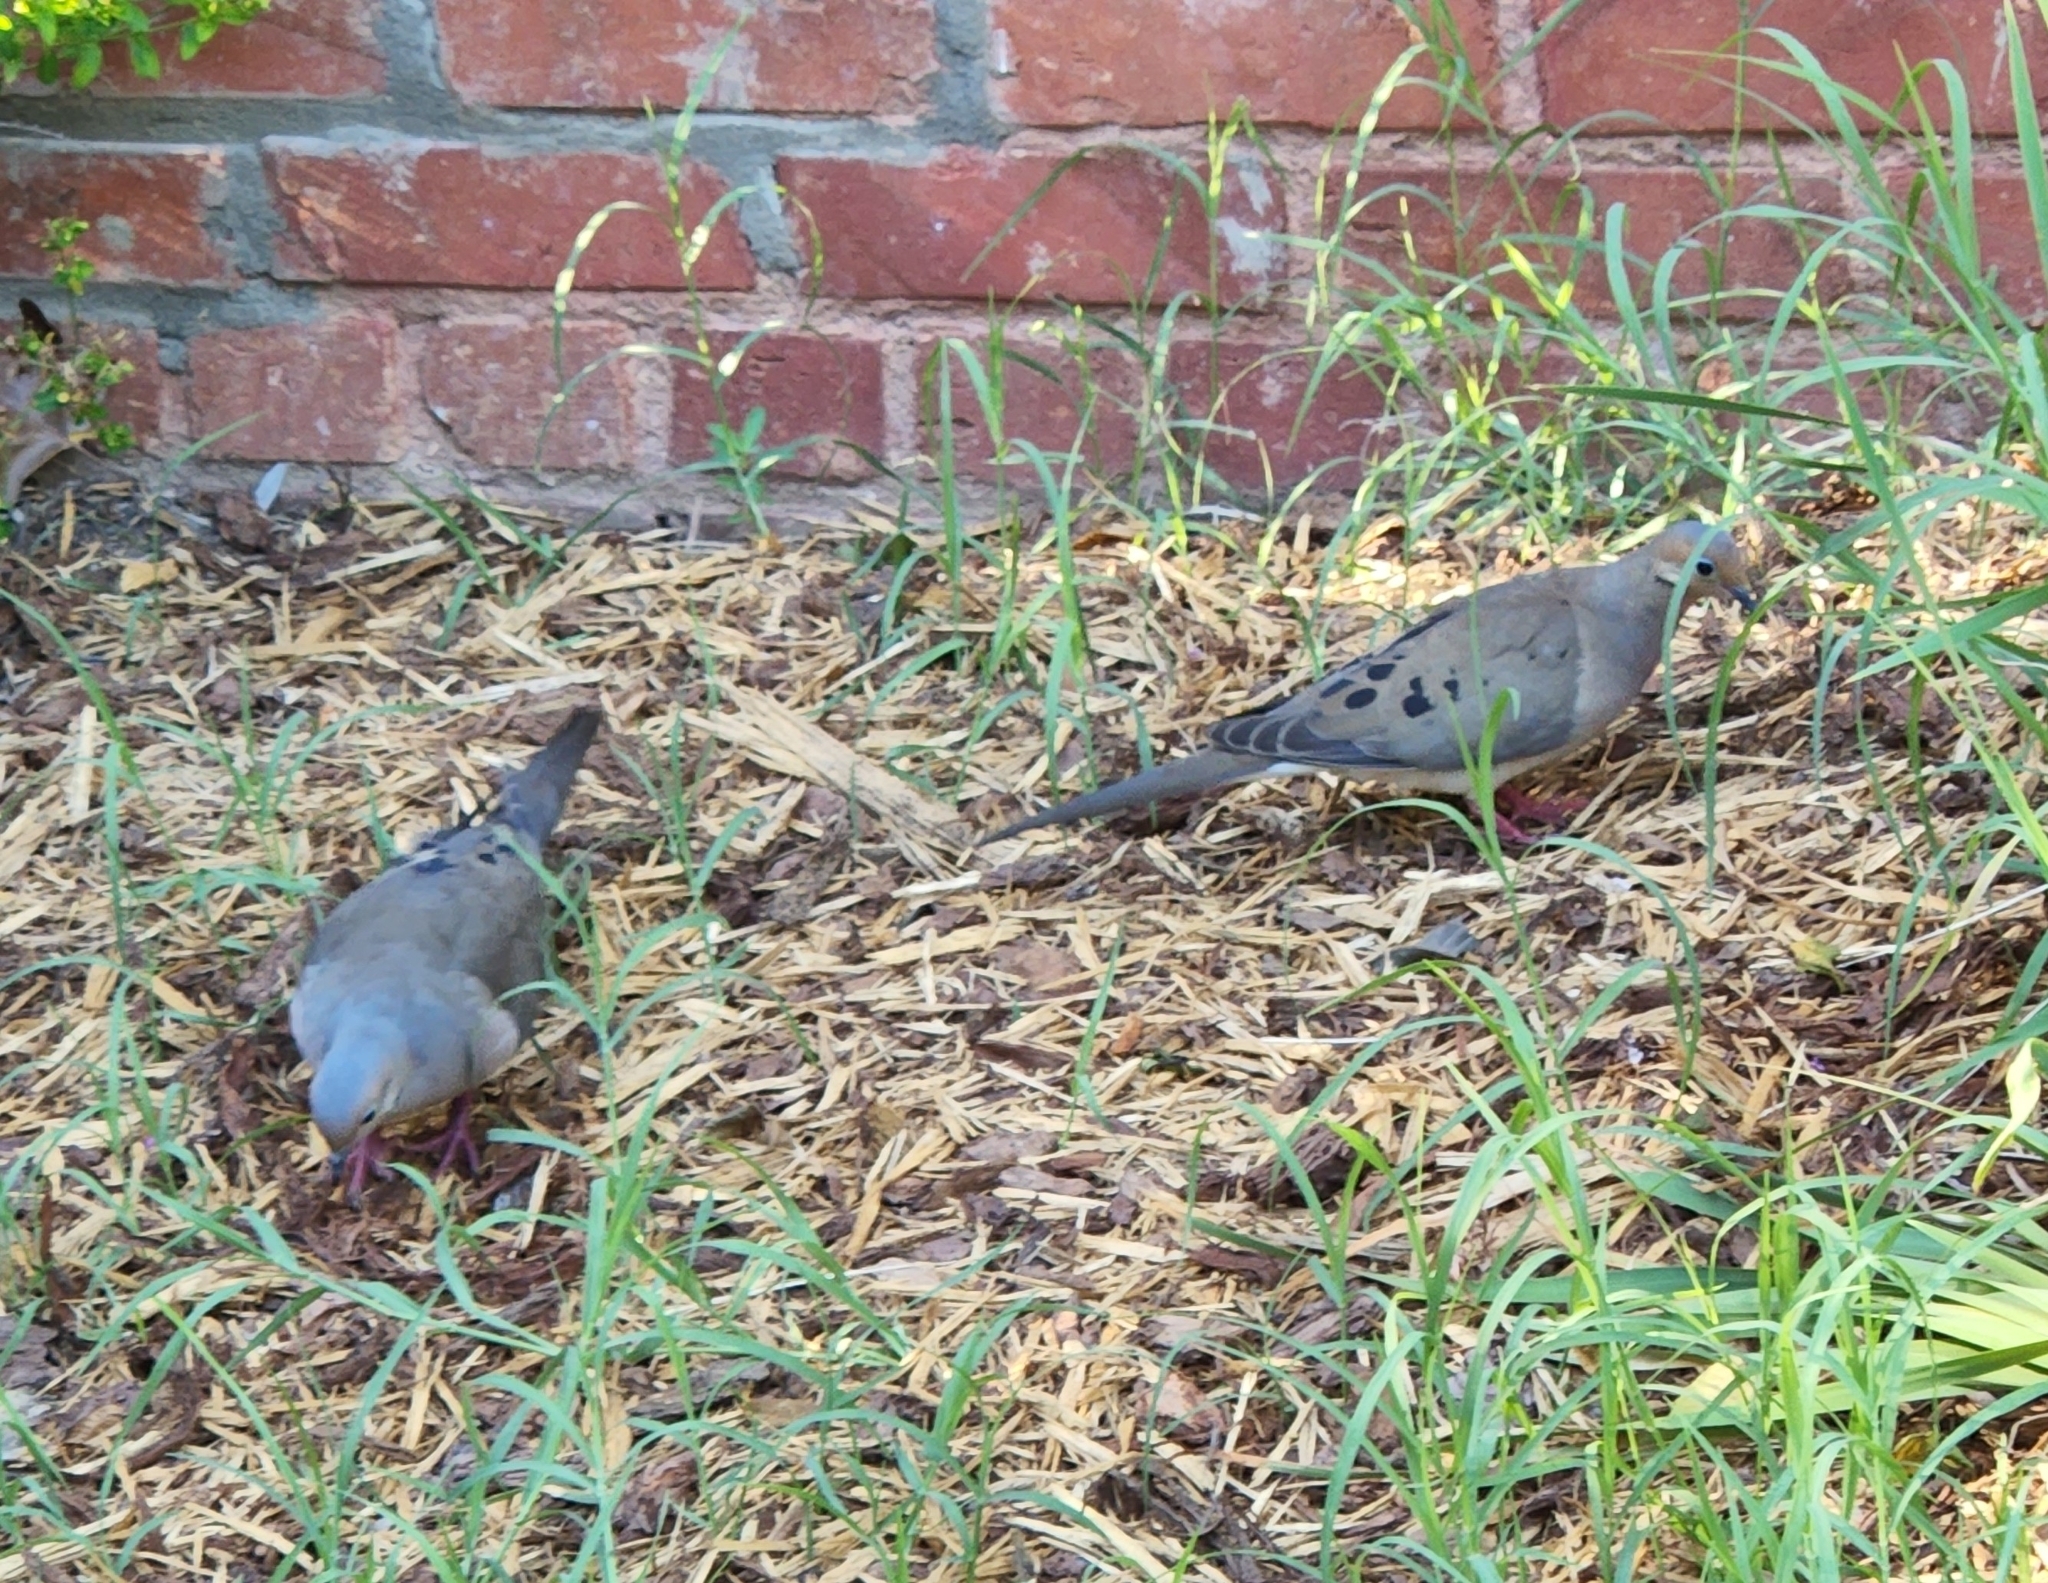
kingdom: Animalia
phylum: Chordata
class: Aves
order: Columbiformes
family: Columbidae
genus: Zenaida
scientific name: Zenaida macroura
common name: Mourning dove
